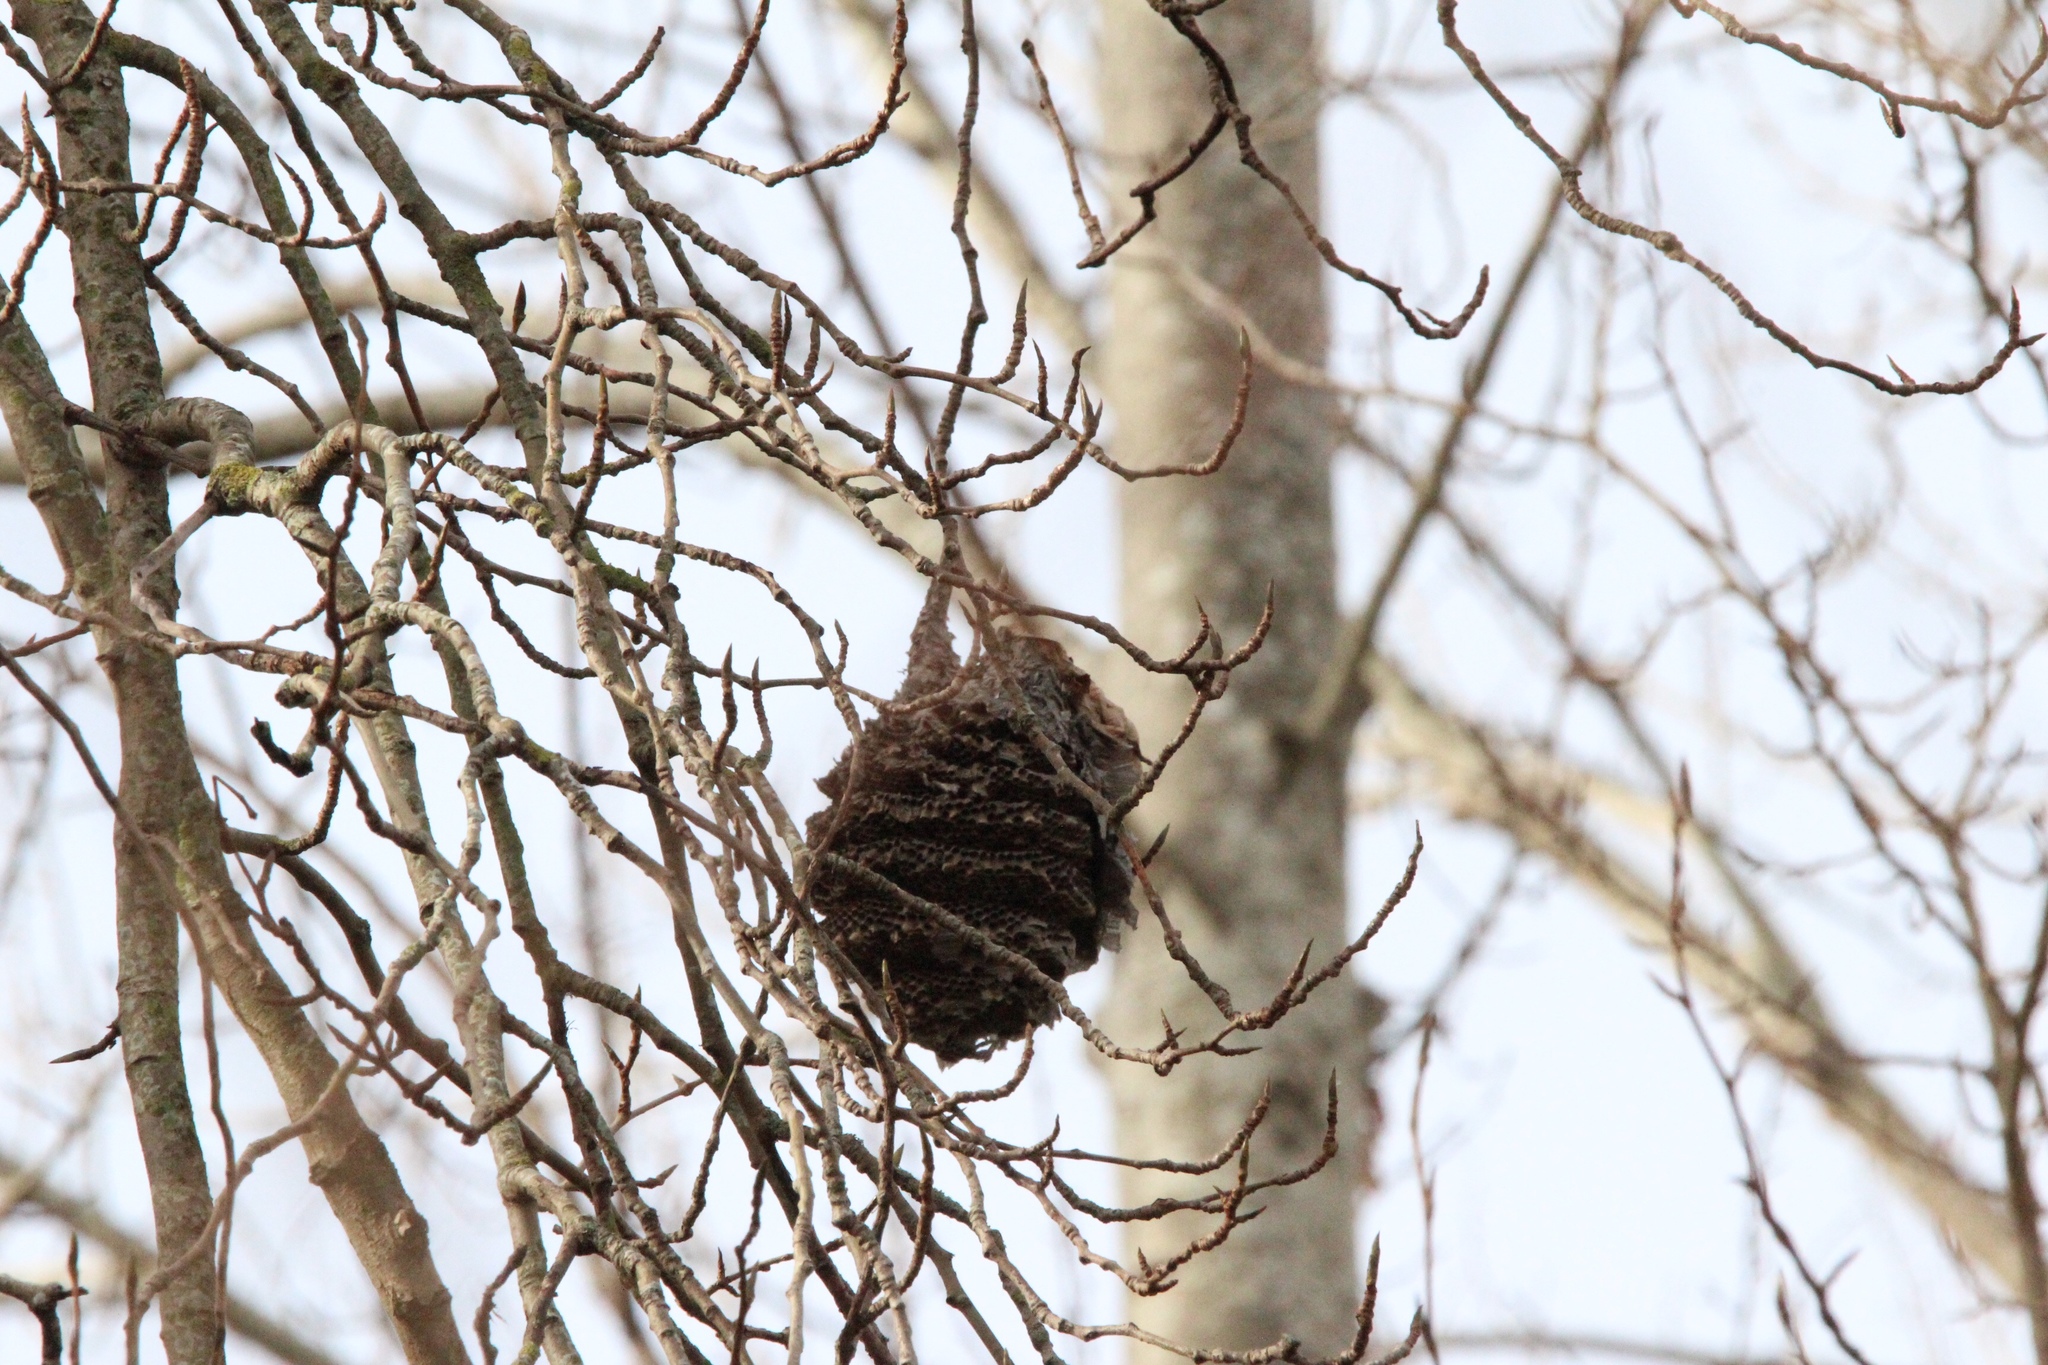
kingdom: Animalia
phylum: Arthropoda
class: Insecta
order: Hymenoptera
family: Vespidae
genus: Dolichovespula
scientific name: Dolichovespula
